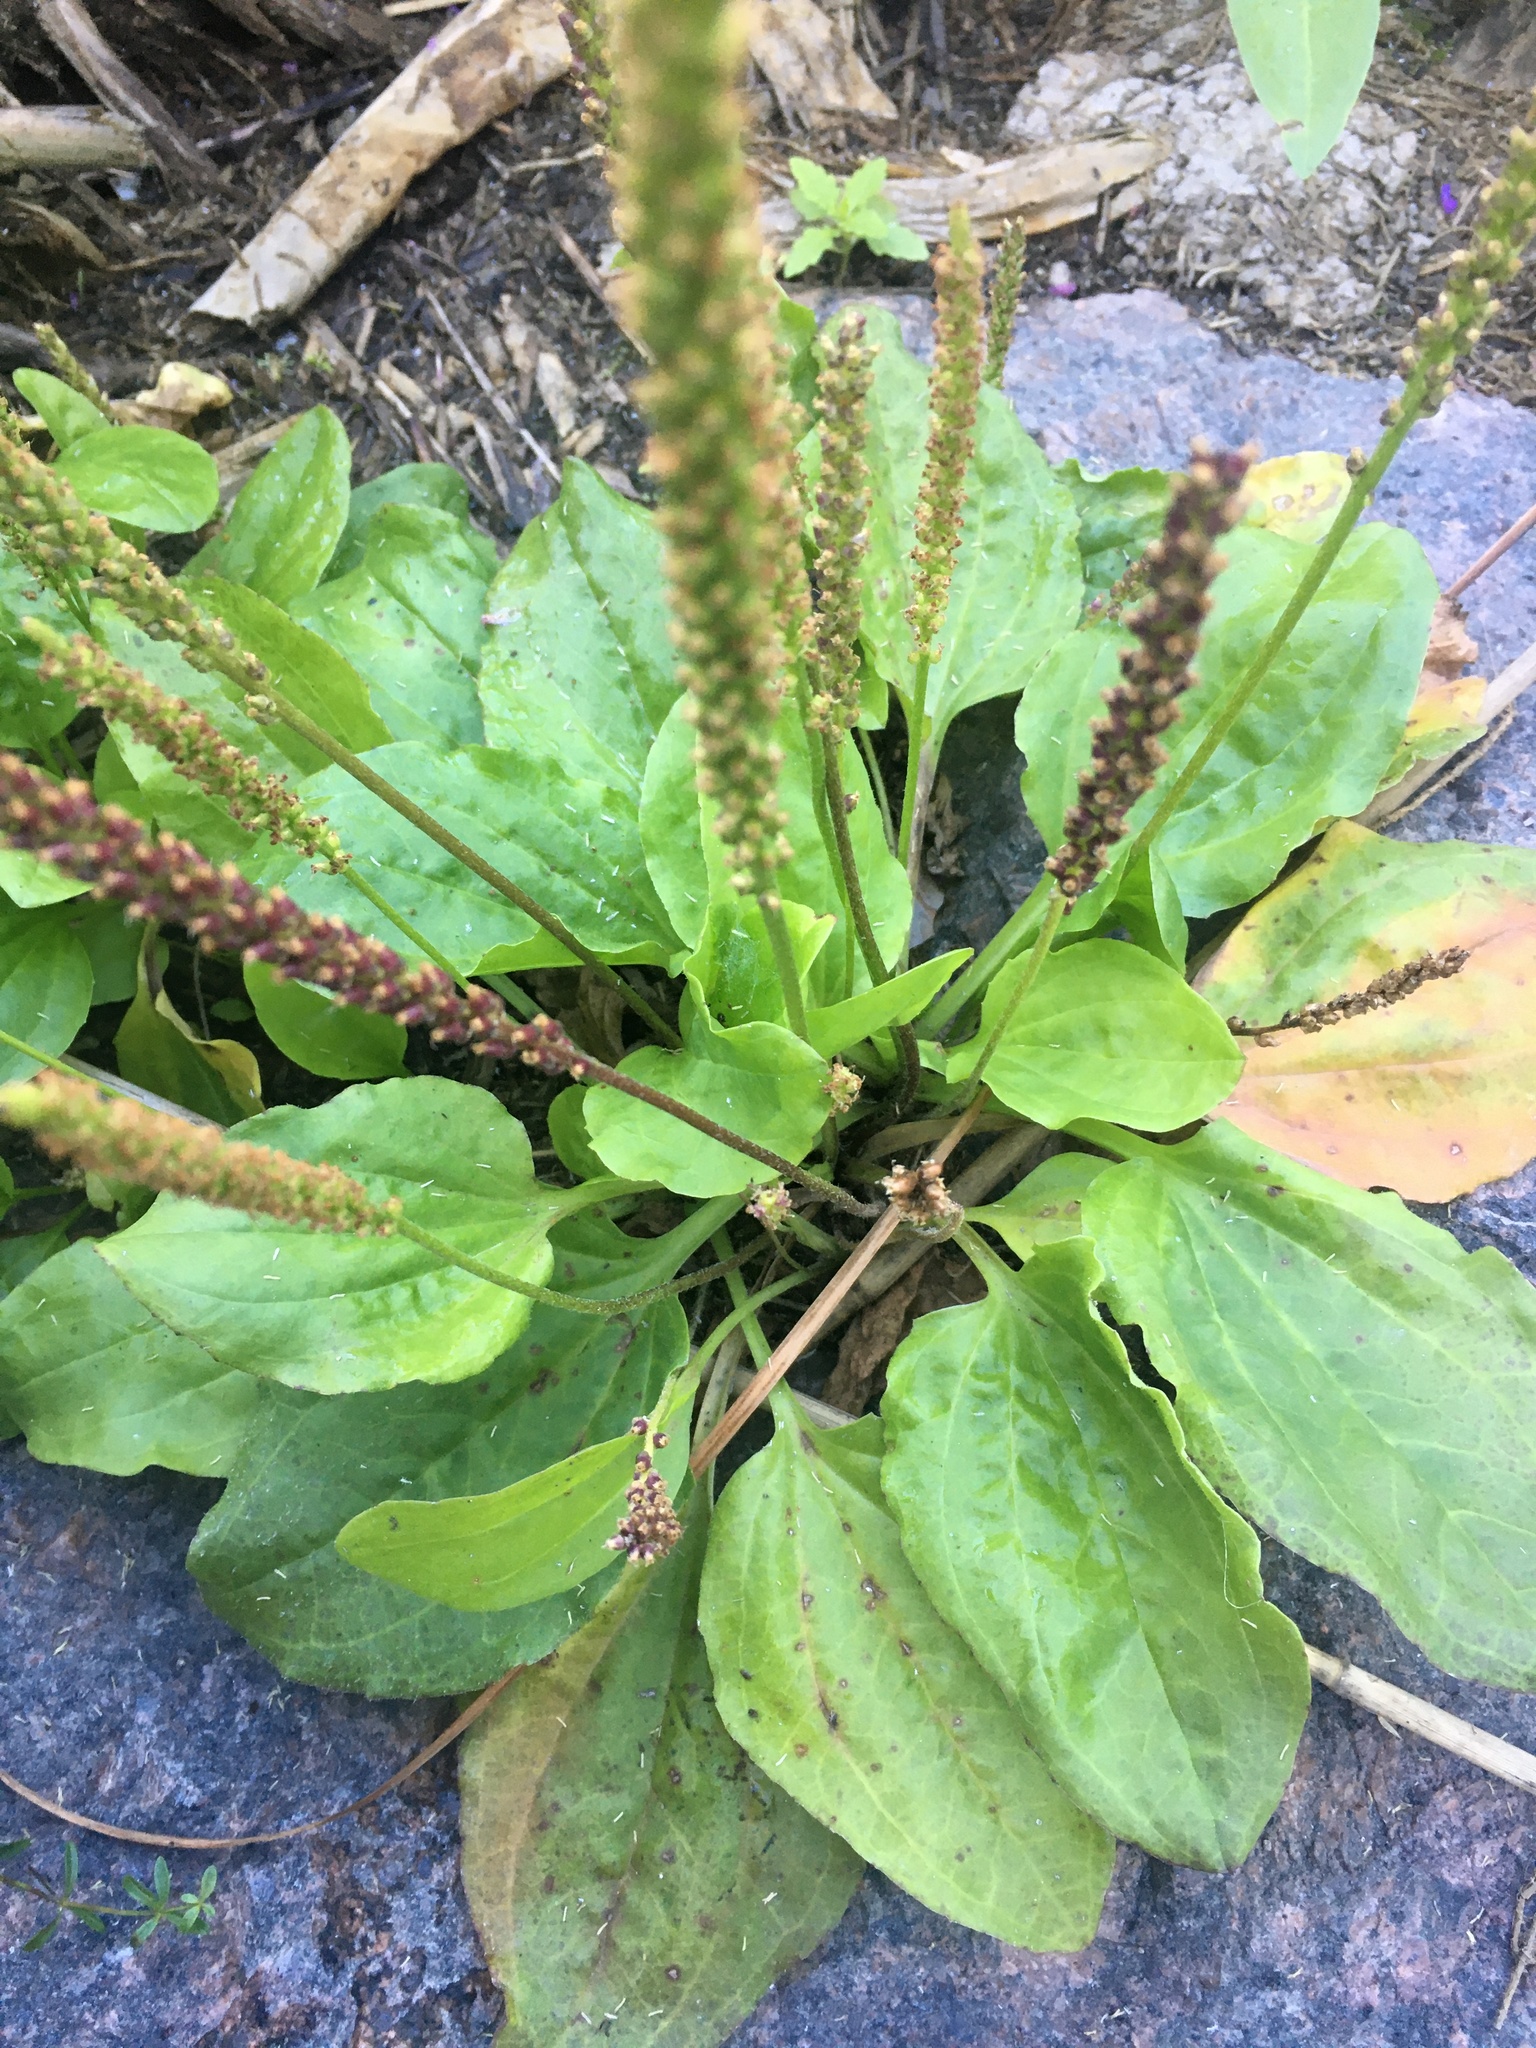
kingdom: Plantae
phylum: Tracheophyta
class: Magnoliopsida
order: Lamiales
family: Plantaginaceae
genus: Plantago
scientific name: Plantago major
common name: Common plantain
